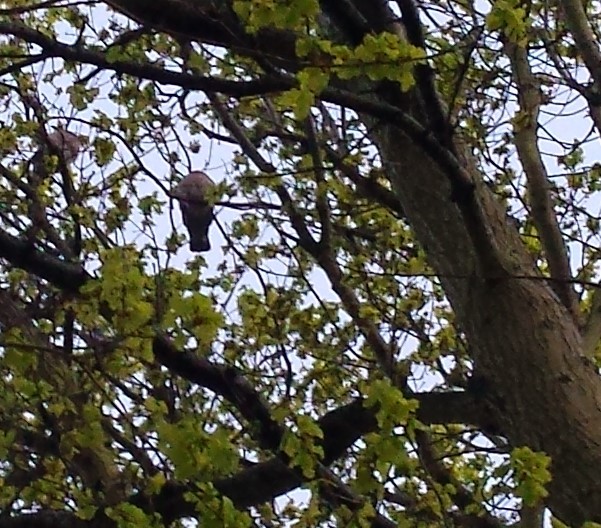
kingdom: Animalia
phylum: Chordata
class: Aves
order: Columbiformes
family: Columbidae
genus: Columba
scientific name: Columba palumbus
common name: Common wood pigeon
